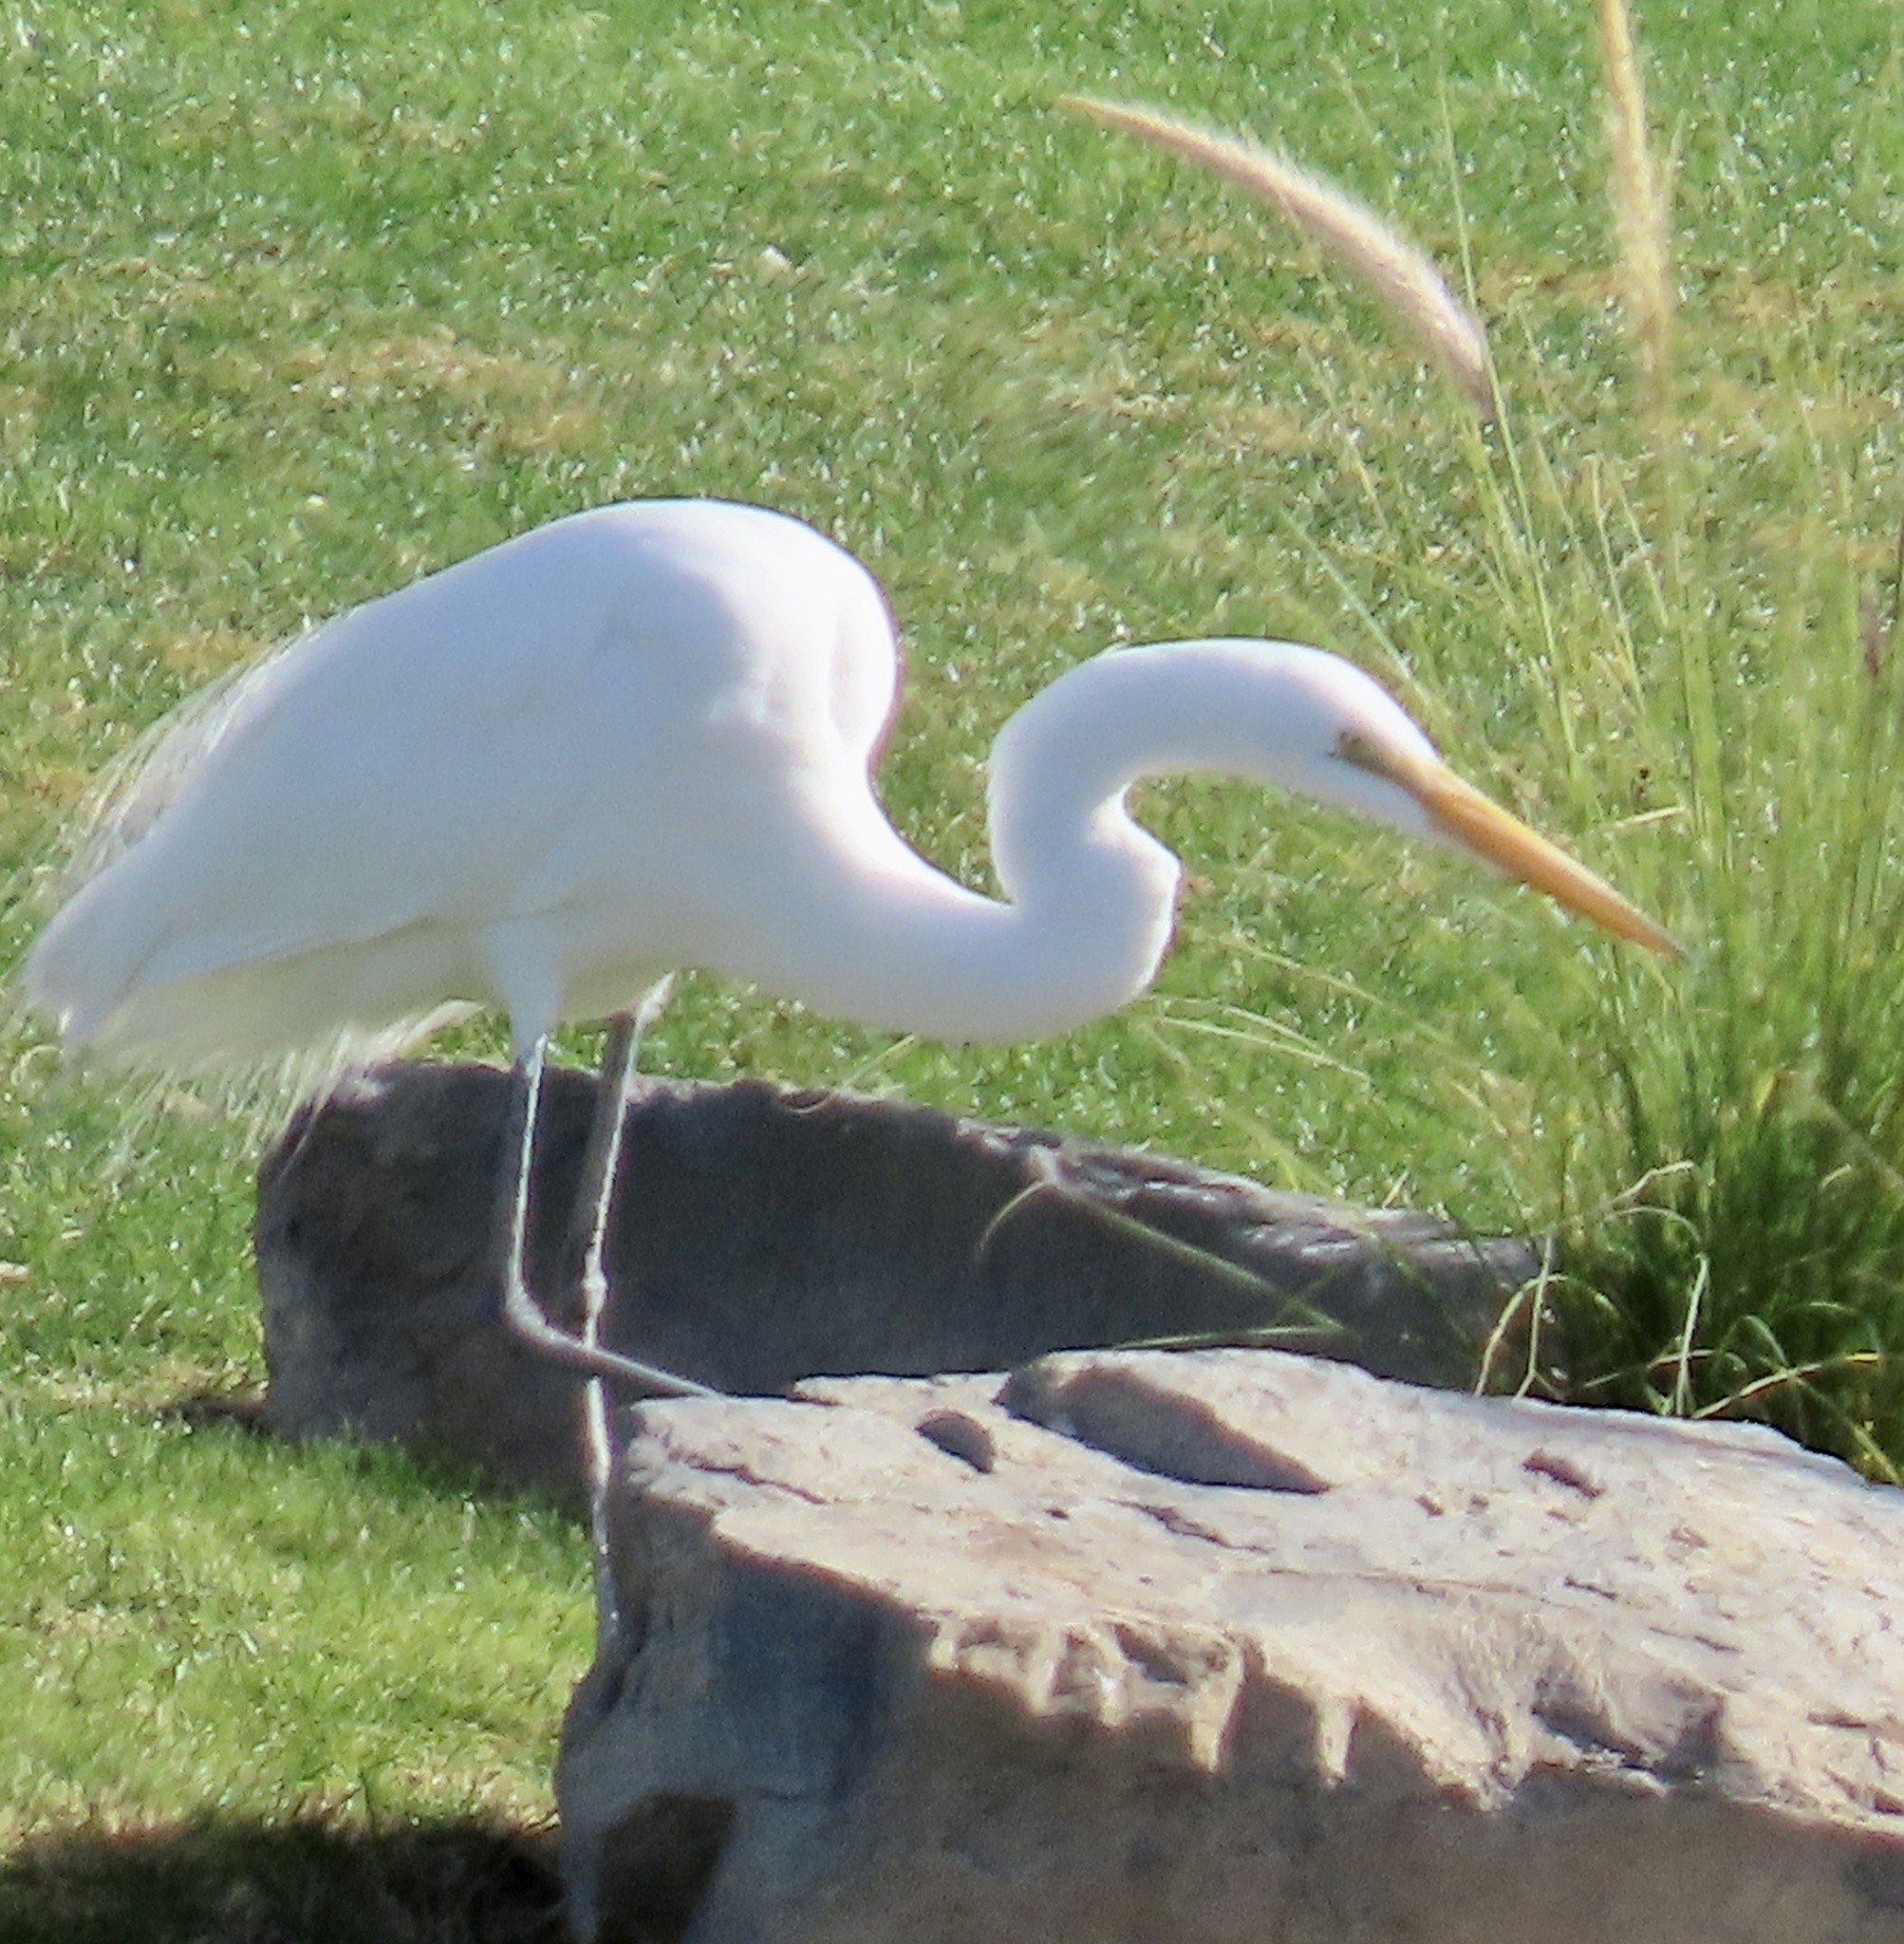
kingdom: Animalia
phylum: Chordata
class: Aves
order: Pelecaniformes
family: Ardeidae
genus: Ardea
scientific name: Ardea alba
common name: Great egret
